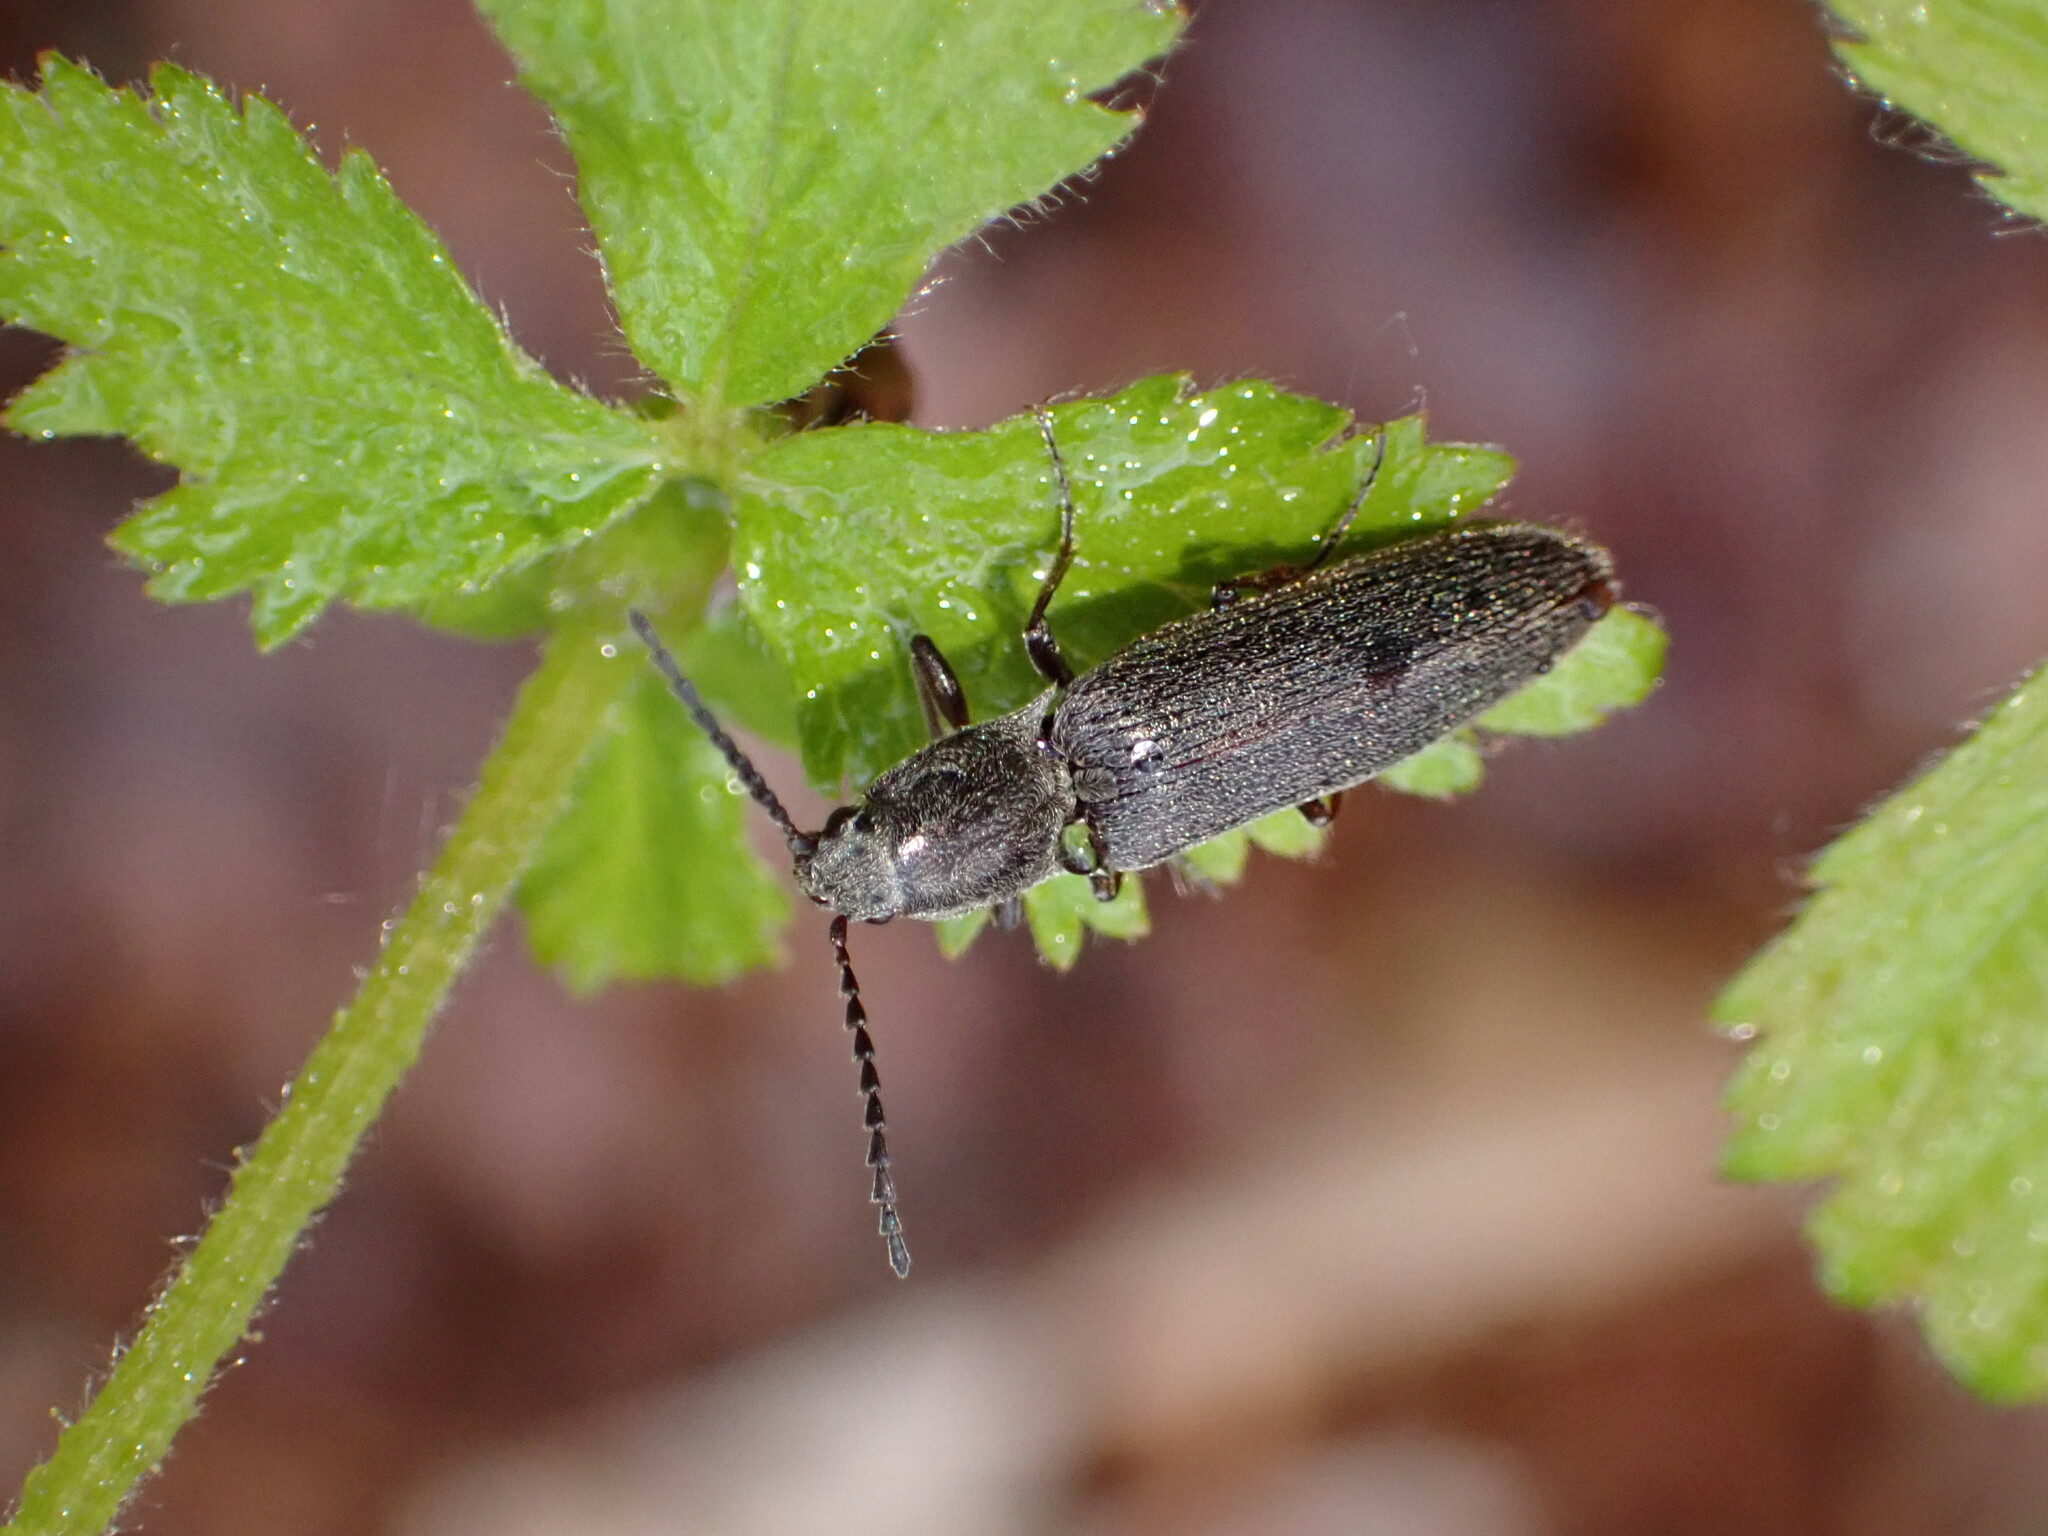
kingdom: Animalia
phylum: Arthropoda
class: Insecta
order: Coleoptera
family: Elateridae
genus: Sylvanelater
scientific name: Sylvanelater cylindriformis
